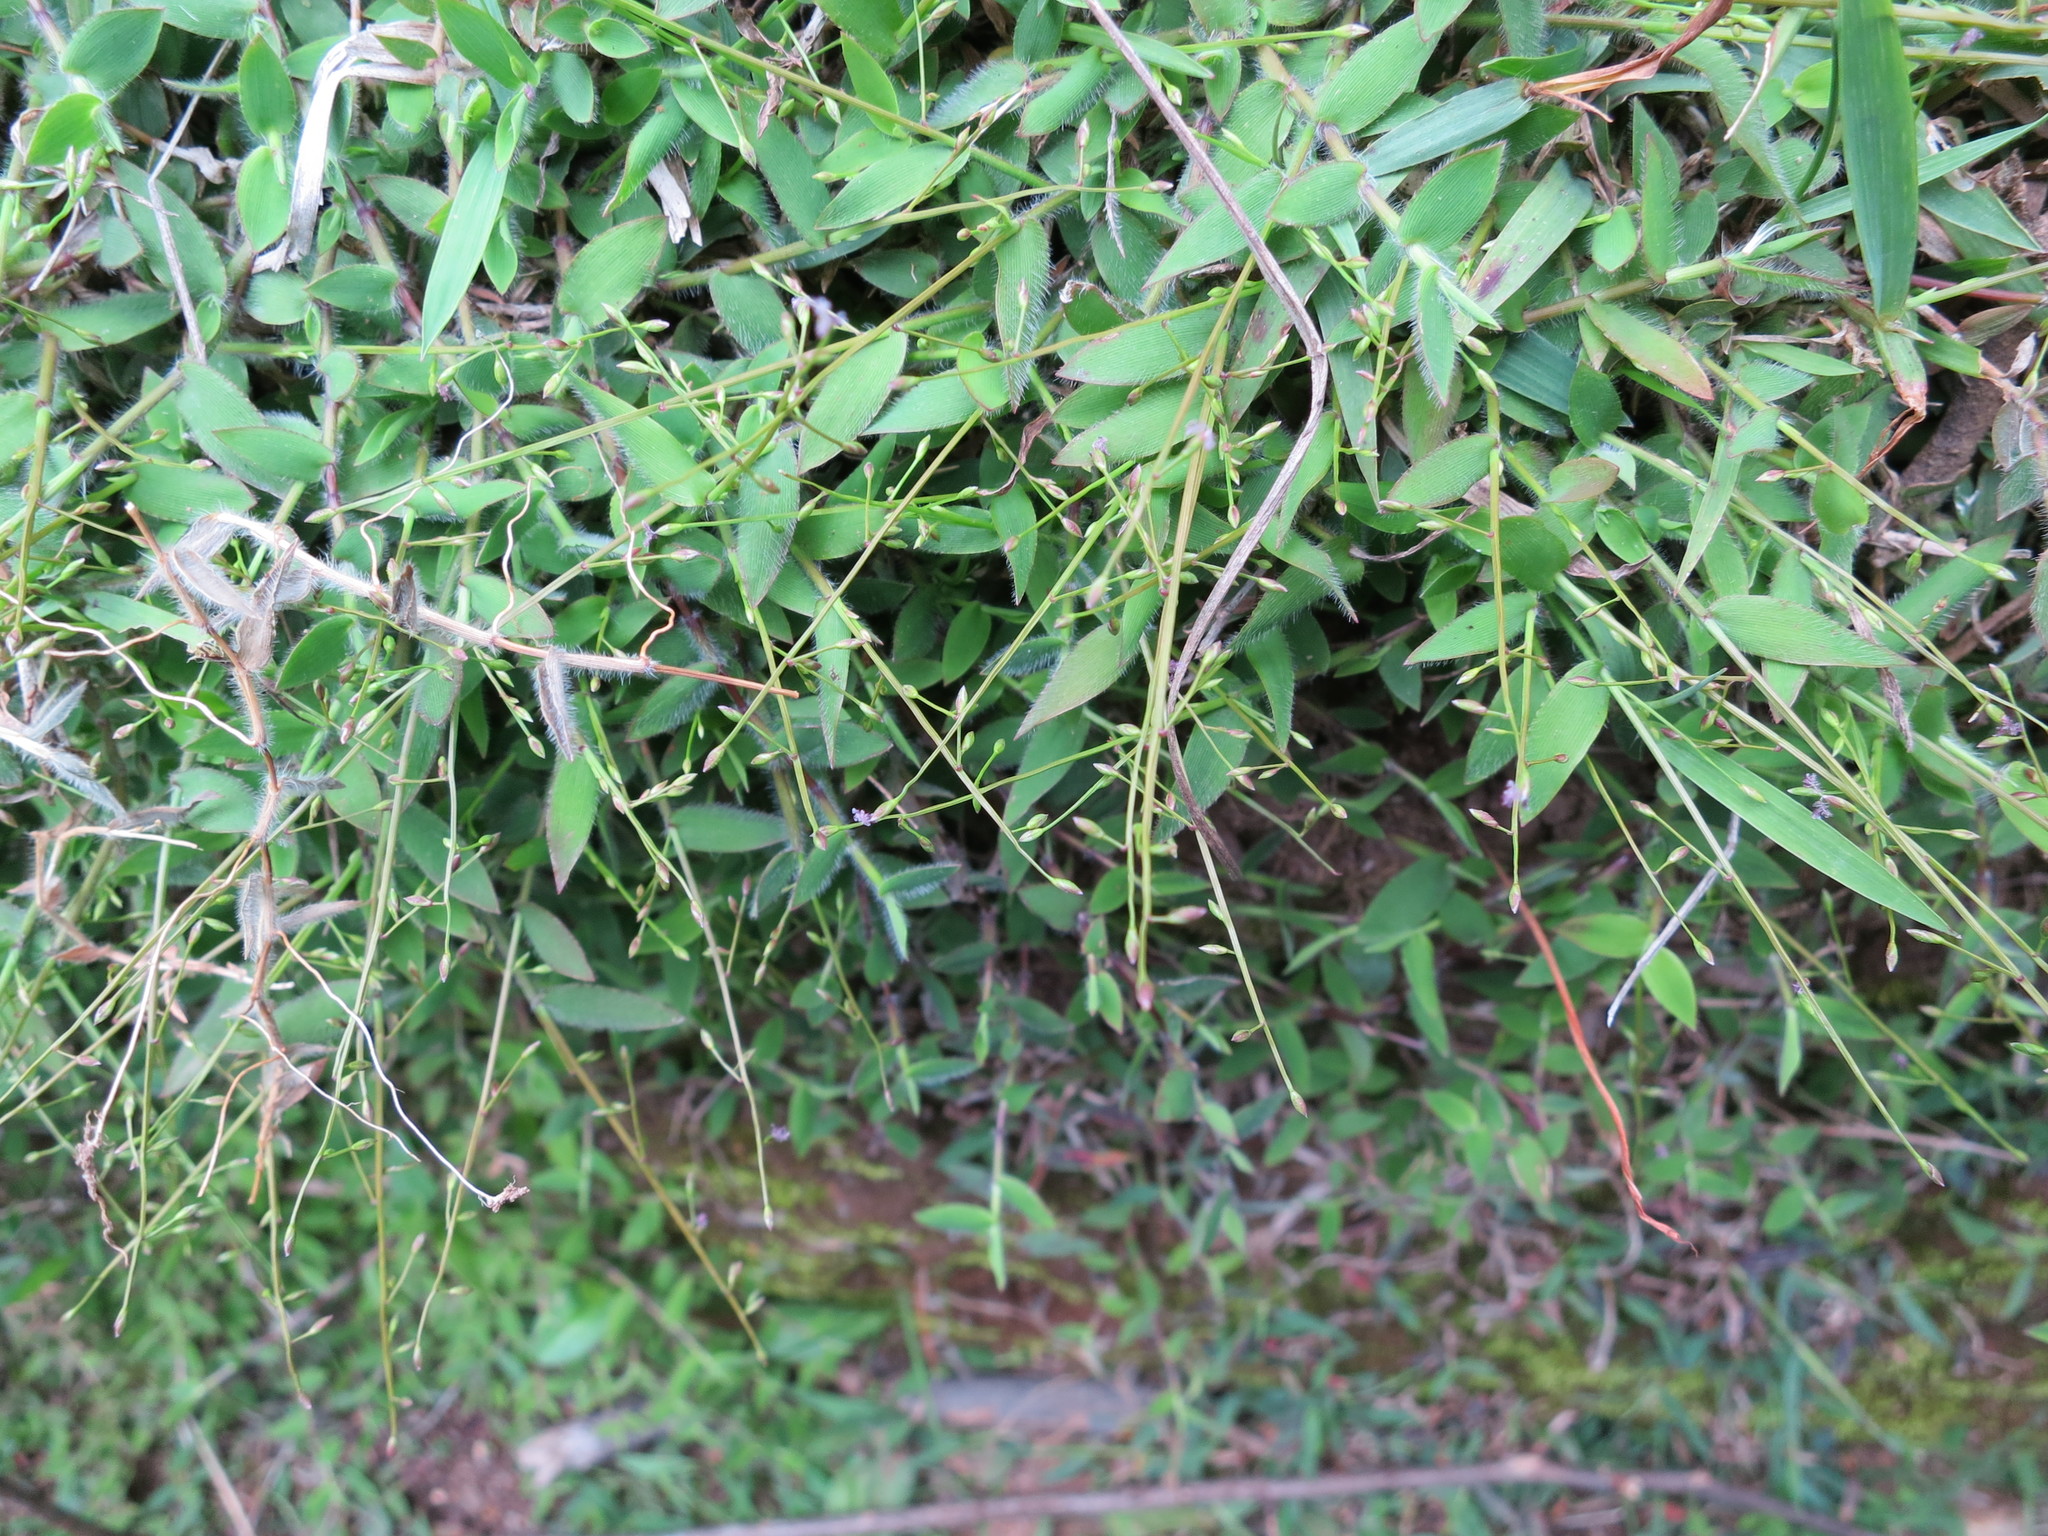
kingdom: Plantae
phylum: Tracheophyta
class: Liliopsida
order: Poales
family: Poaceae
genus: Urochloa
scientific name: Urochloa Brachiaria epacridifolia
